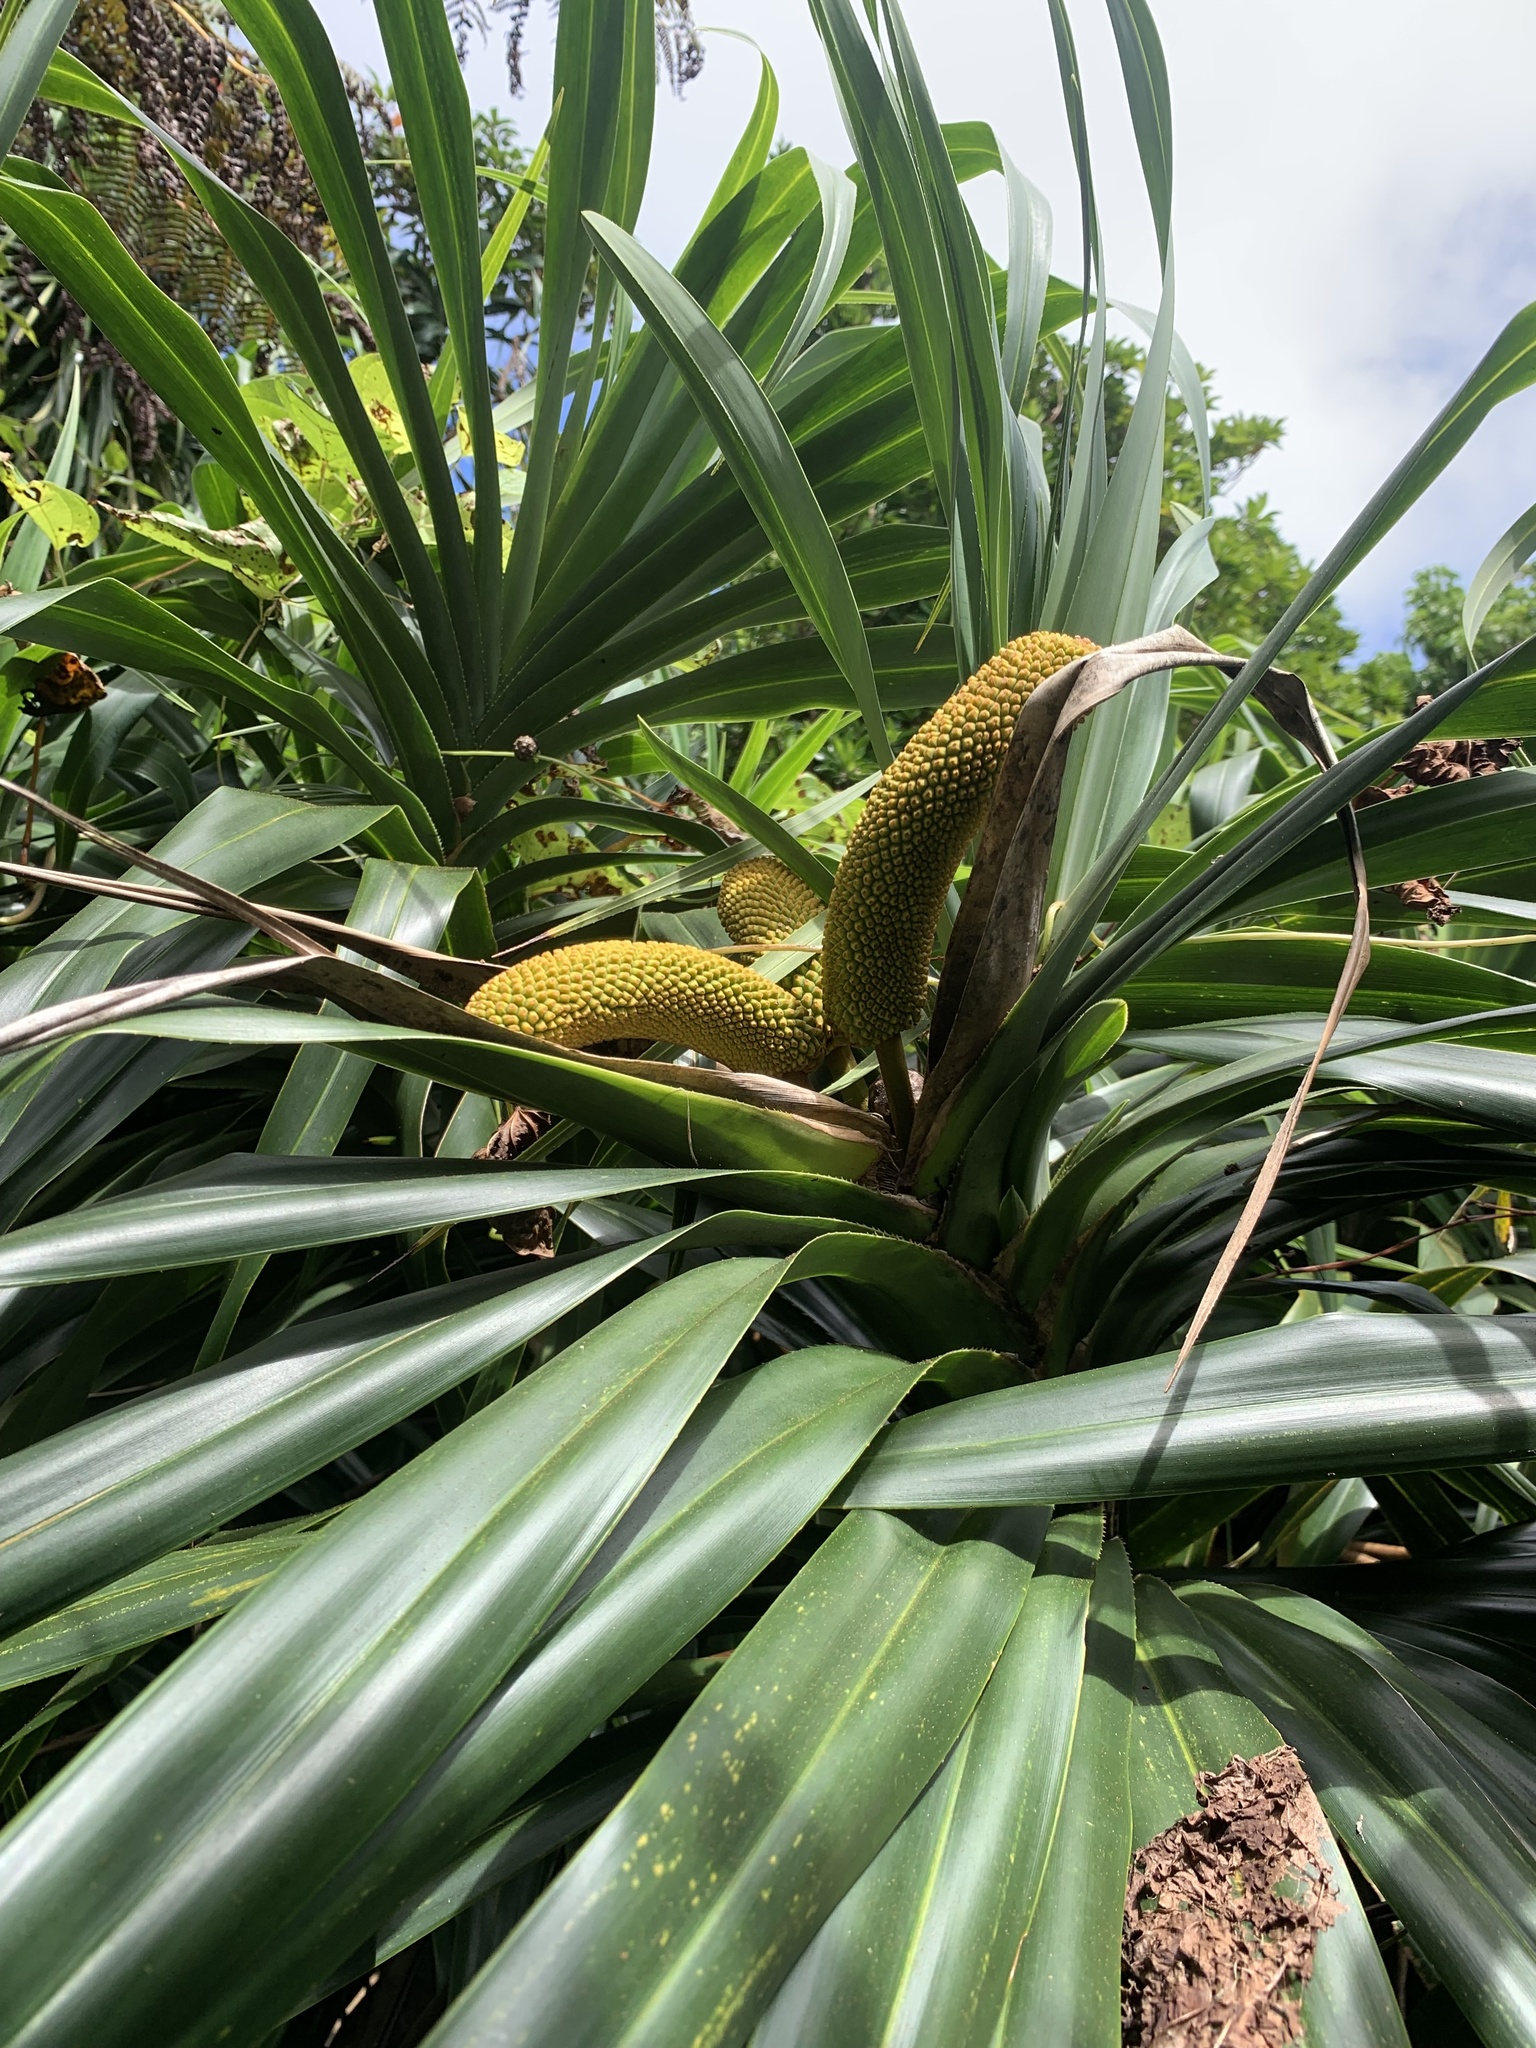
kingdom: Plantae
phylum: Tracheophyta
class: Liliopsida
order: Pandanales
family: Pandanaceae
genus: Freycinetia
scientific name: Freycinetia formosana
